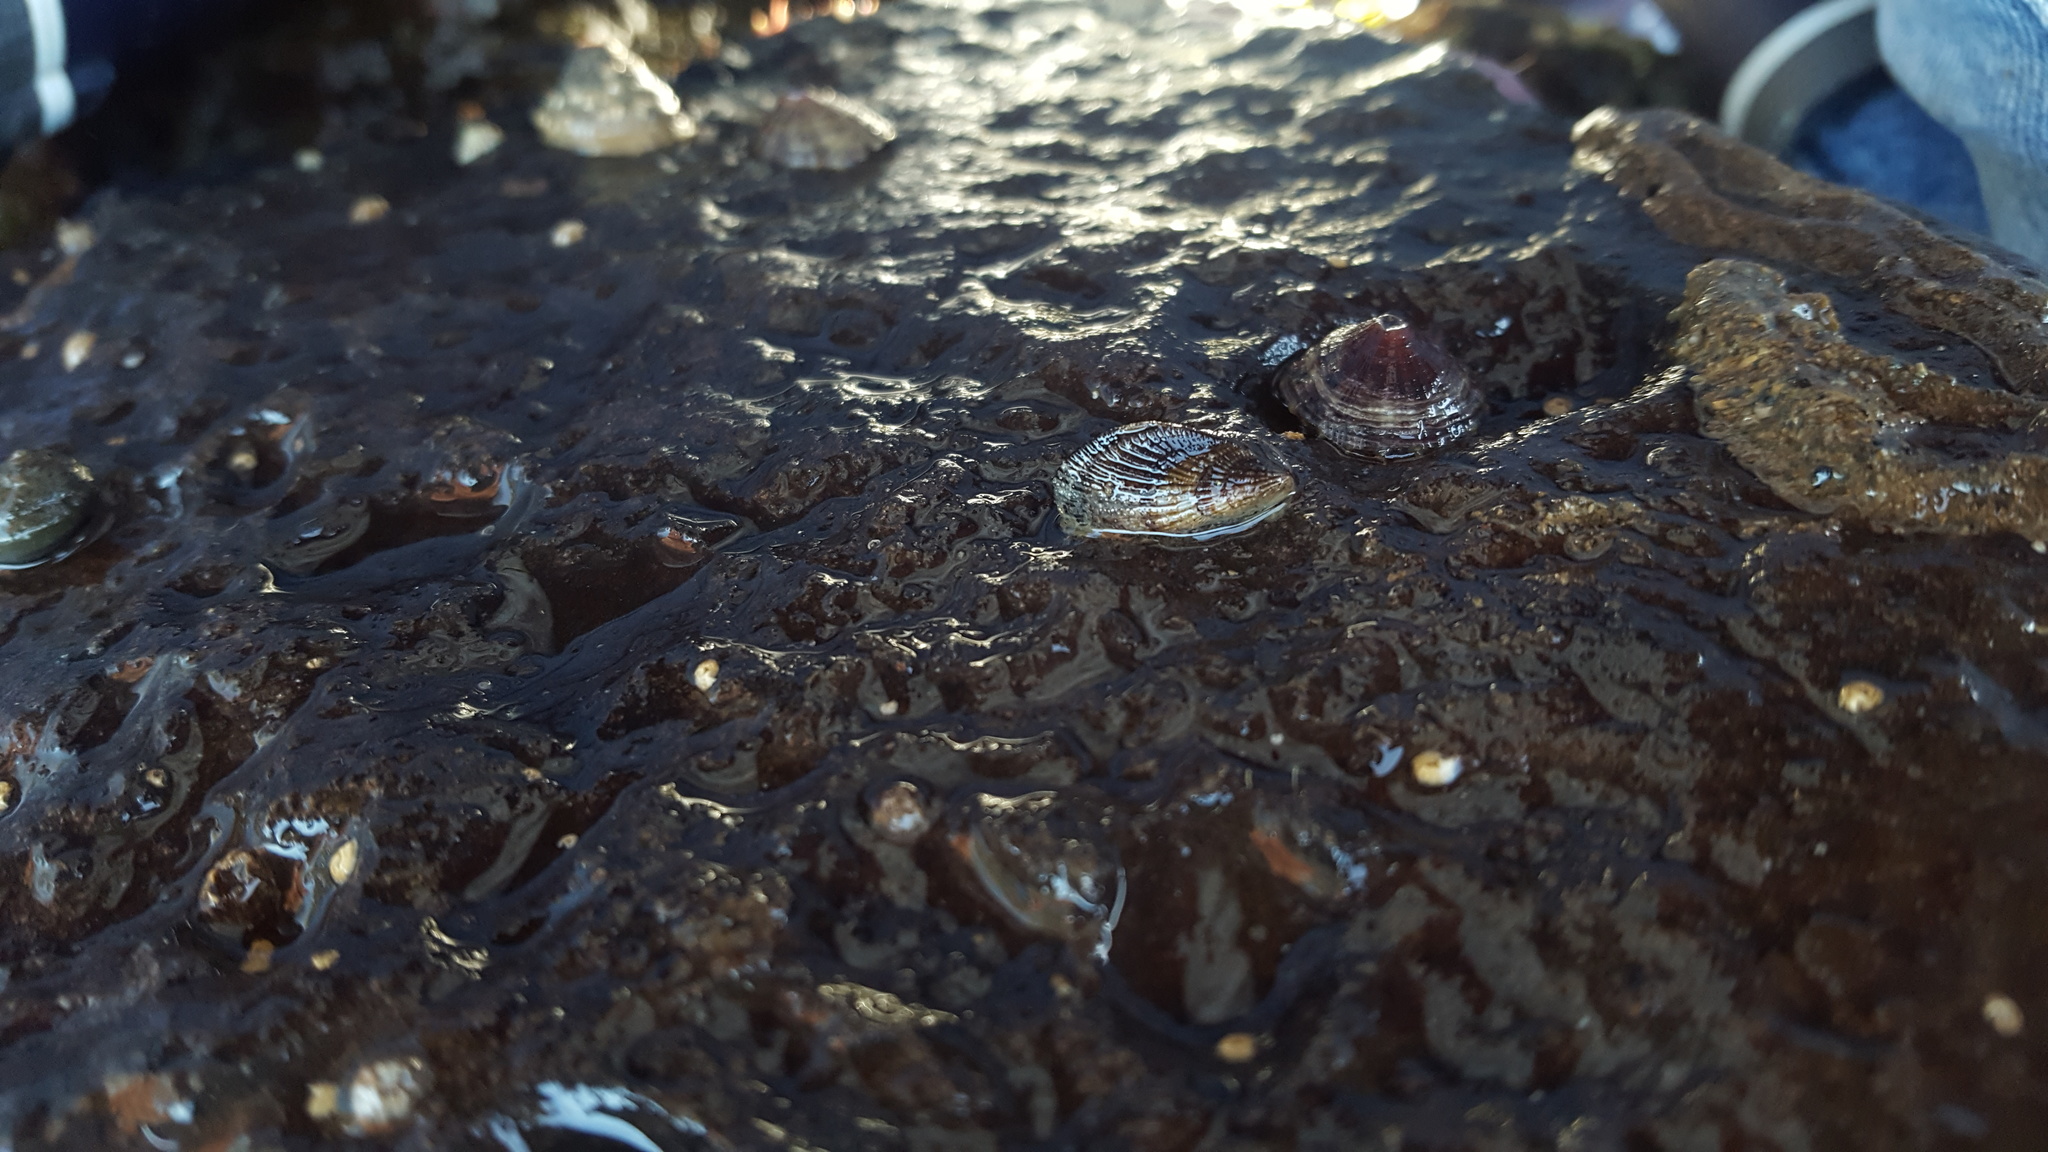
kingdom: Animalia
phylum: Mollusca
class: Bivalvia
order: Mytilida
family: Mytilidae
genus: Mytilisepta
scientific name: Mytilisepta bifurcata
